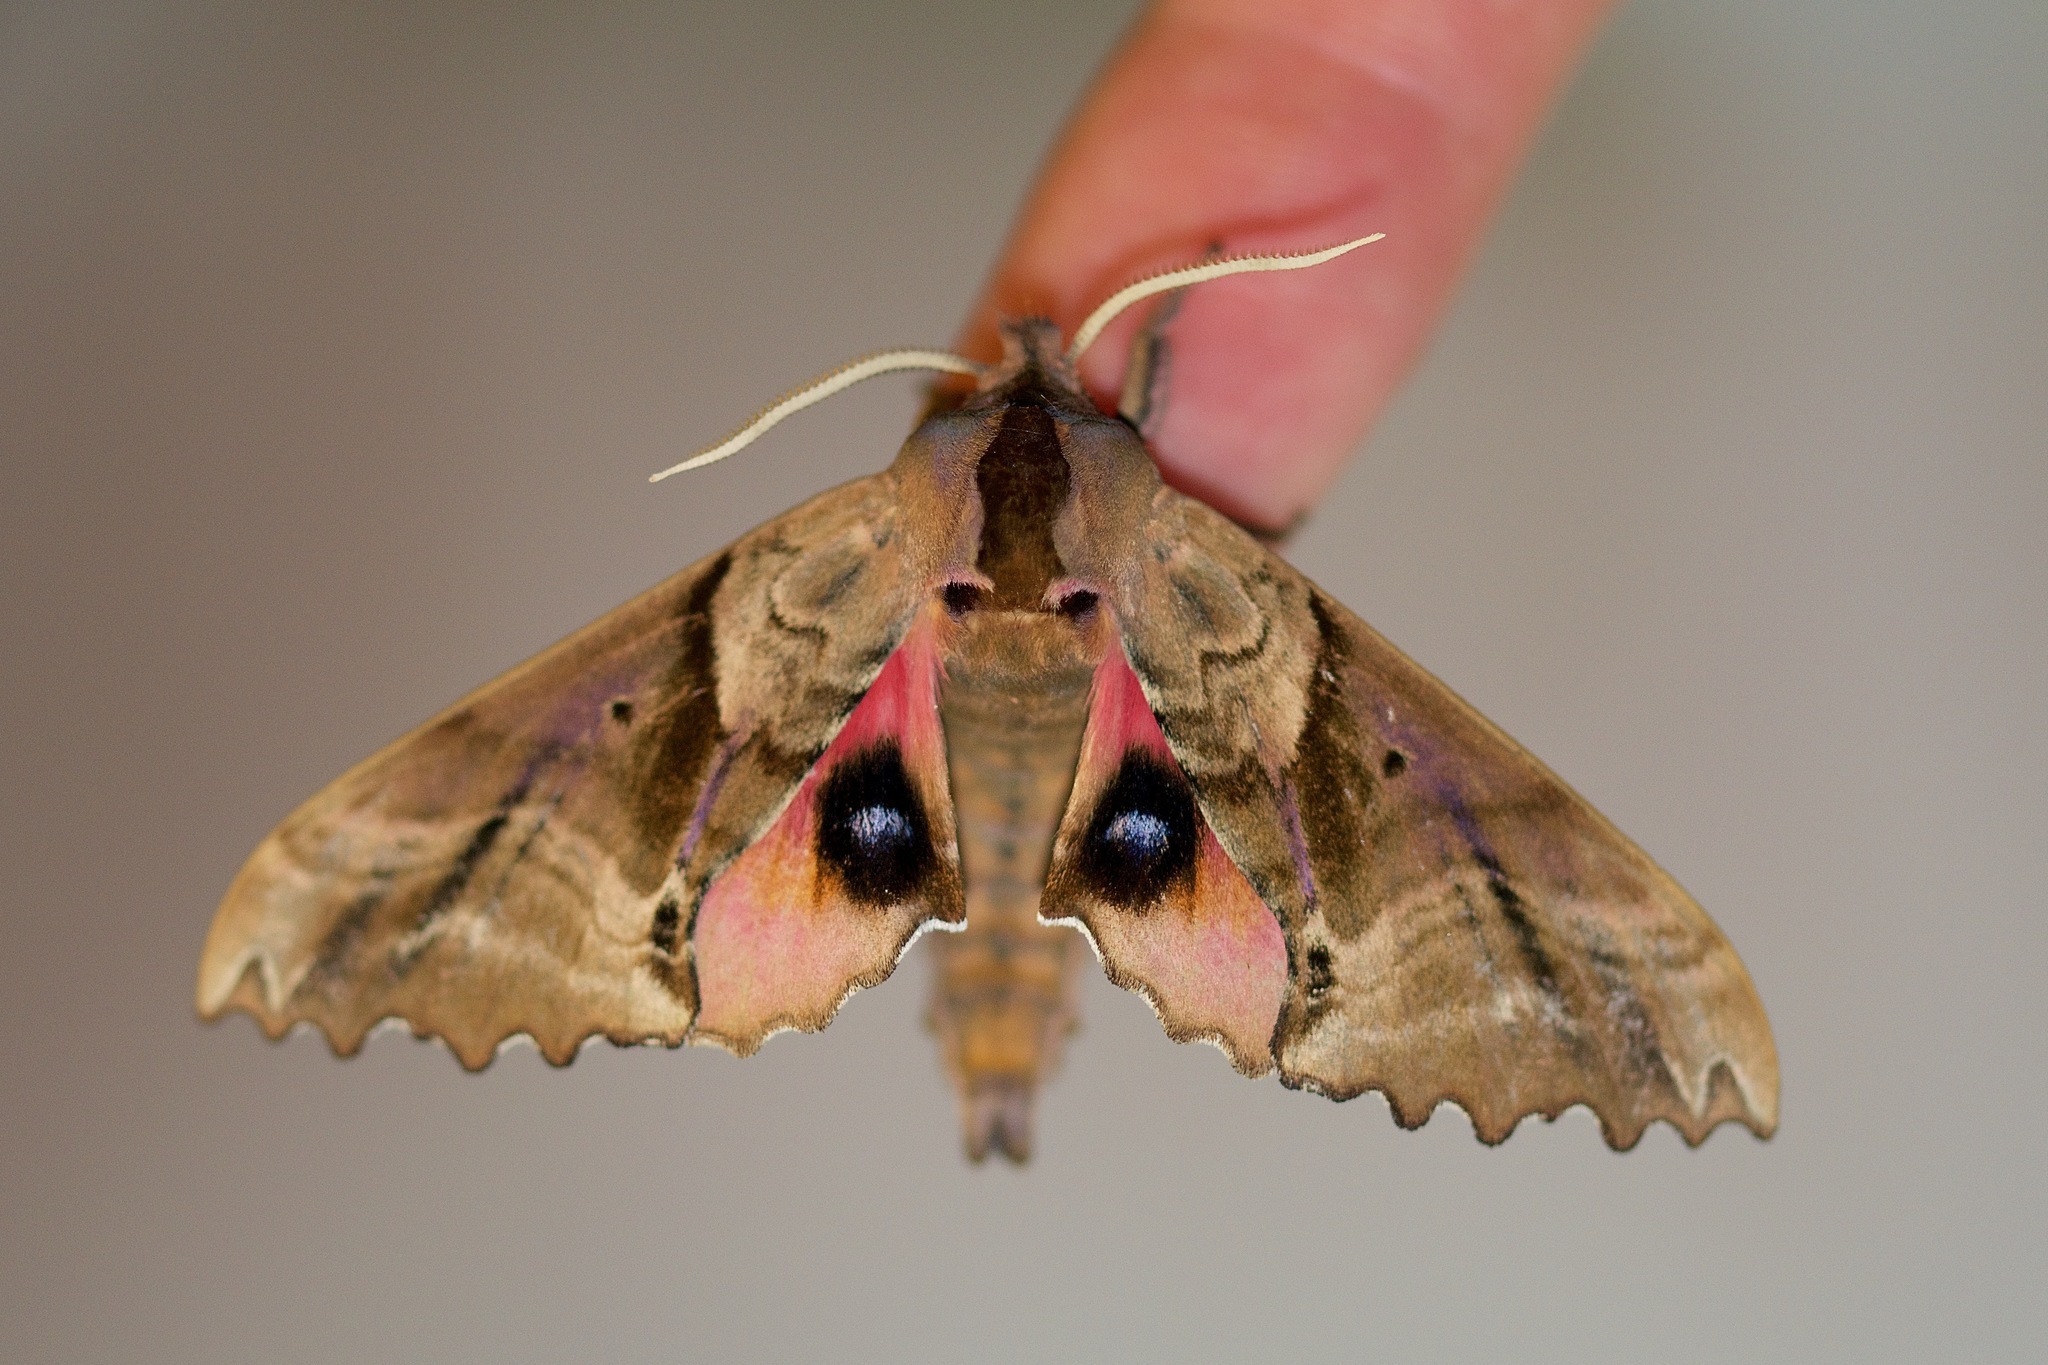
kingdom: Animalia
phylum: Arthropoda
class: Insecta
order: Lepidoptera
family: Sphingidae
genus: Paonias
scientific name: Paonias excaecata
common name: Blind-eyed sphinx
